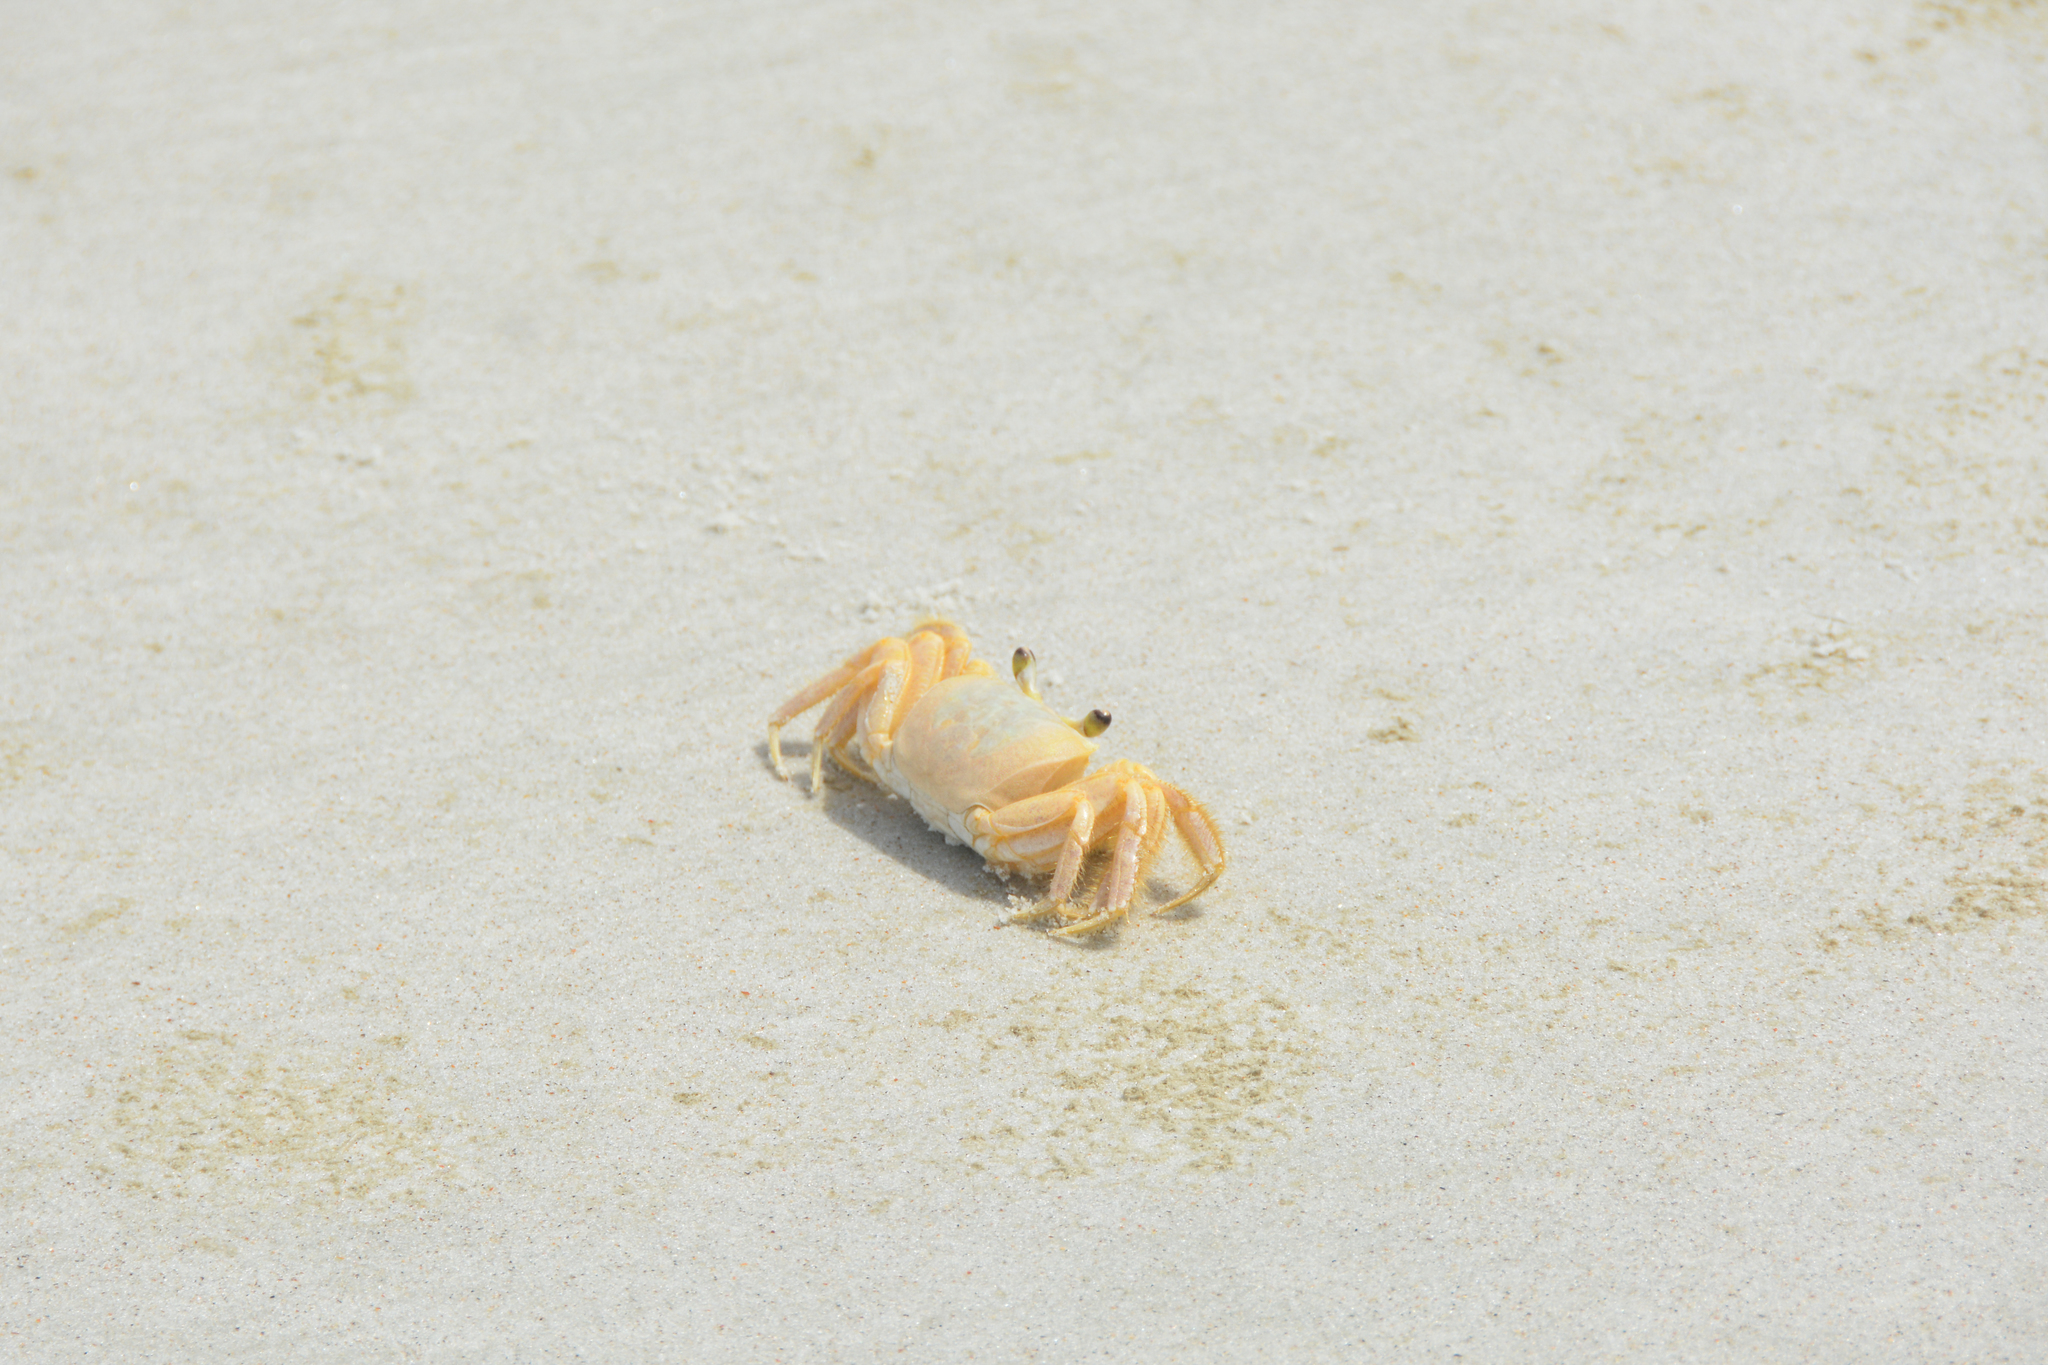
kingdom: Animalia
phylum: Arthropoda
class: Malacostraca
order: Decapoda
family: Ocypodidae
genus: Ocypode
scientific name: Ocypode quadrata
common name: Ghost crab
